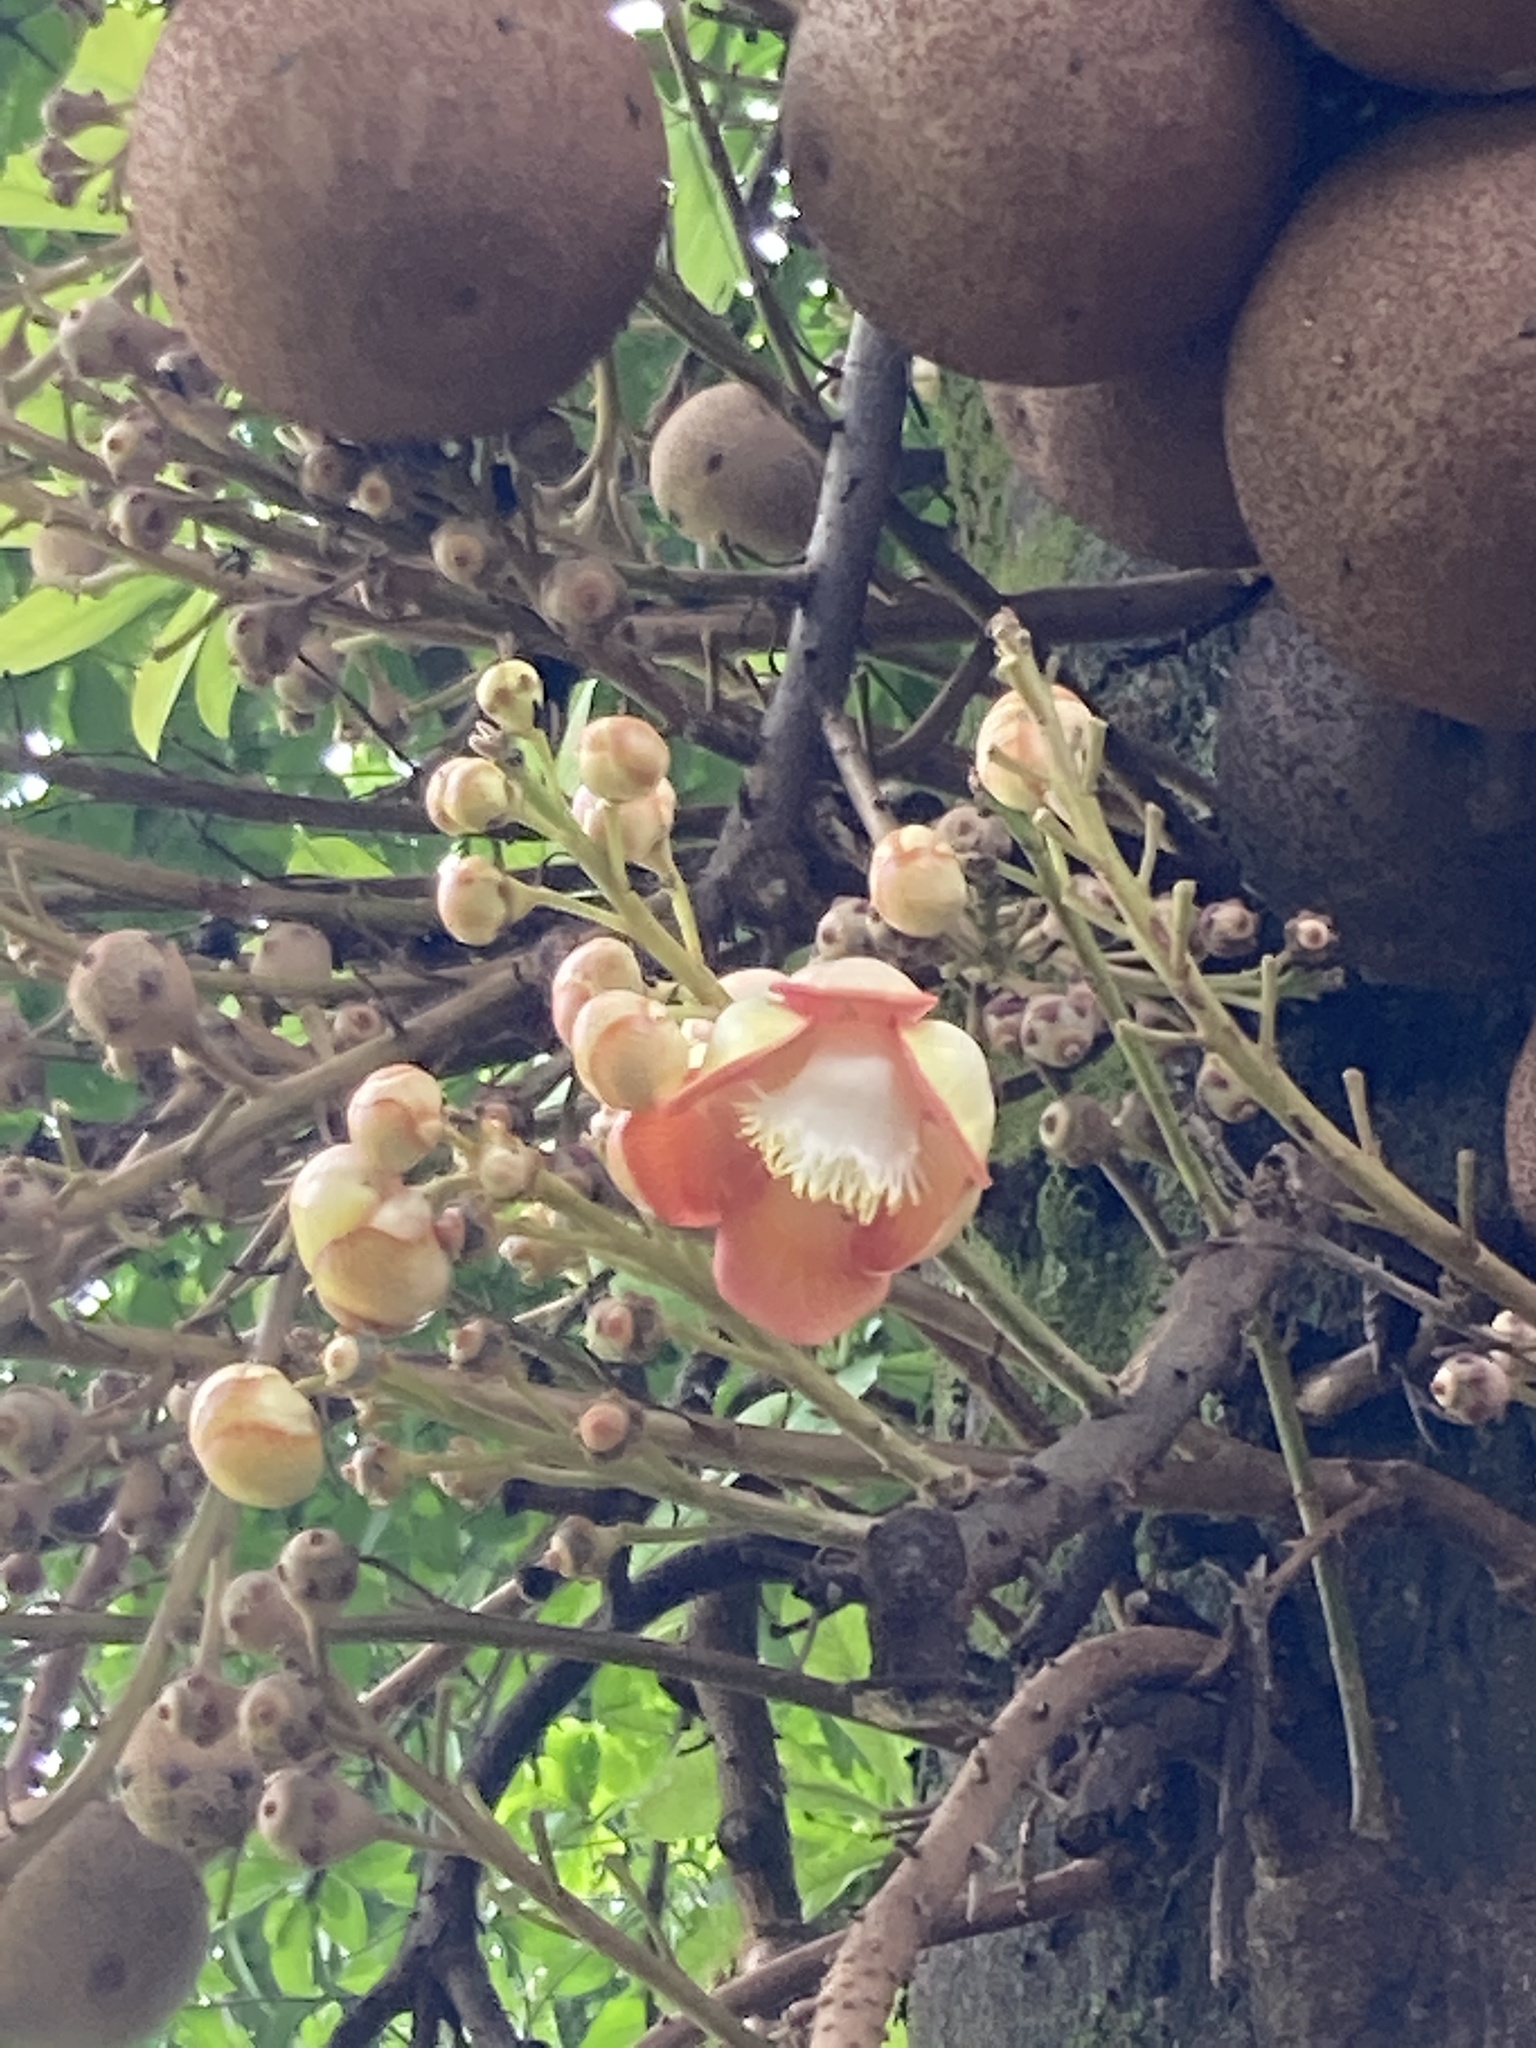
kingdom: Plantae
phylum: Tracheophyta
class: Magnoliopsida
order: Ericales
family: Lecythidaceae
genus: Couroupita
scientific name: Couroupita guianensis
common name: Cannonball tree
